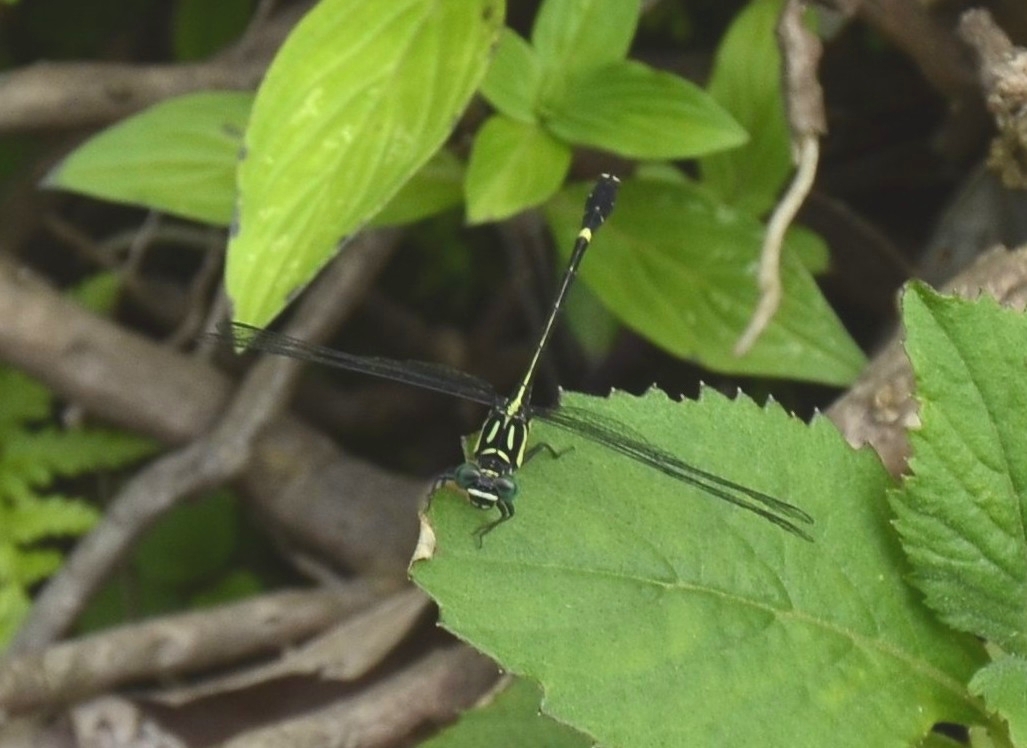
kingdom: Animalia
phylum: Arthropoda
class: Insecta
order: Odonata
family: Gomphidae
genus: Heliogomphus
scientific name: Heliogomphus promelas
